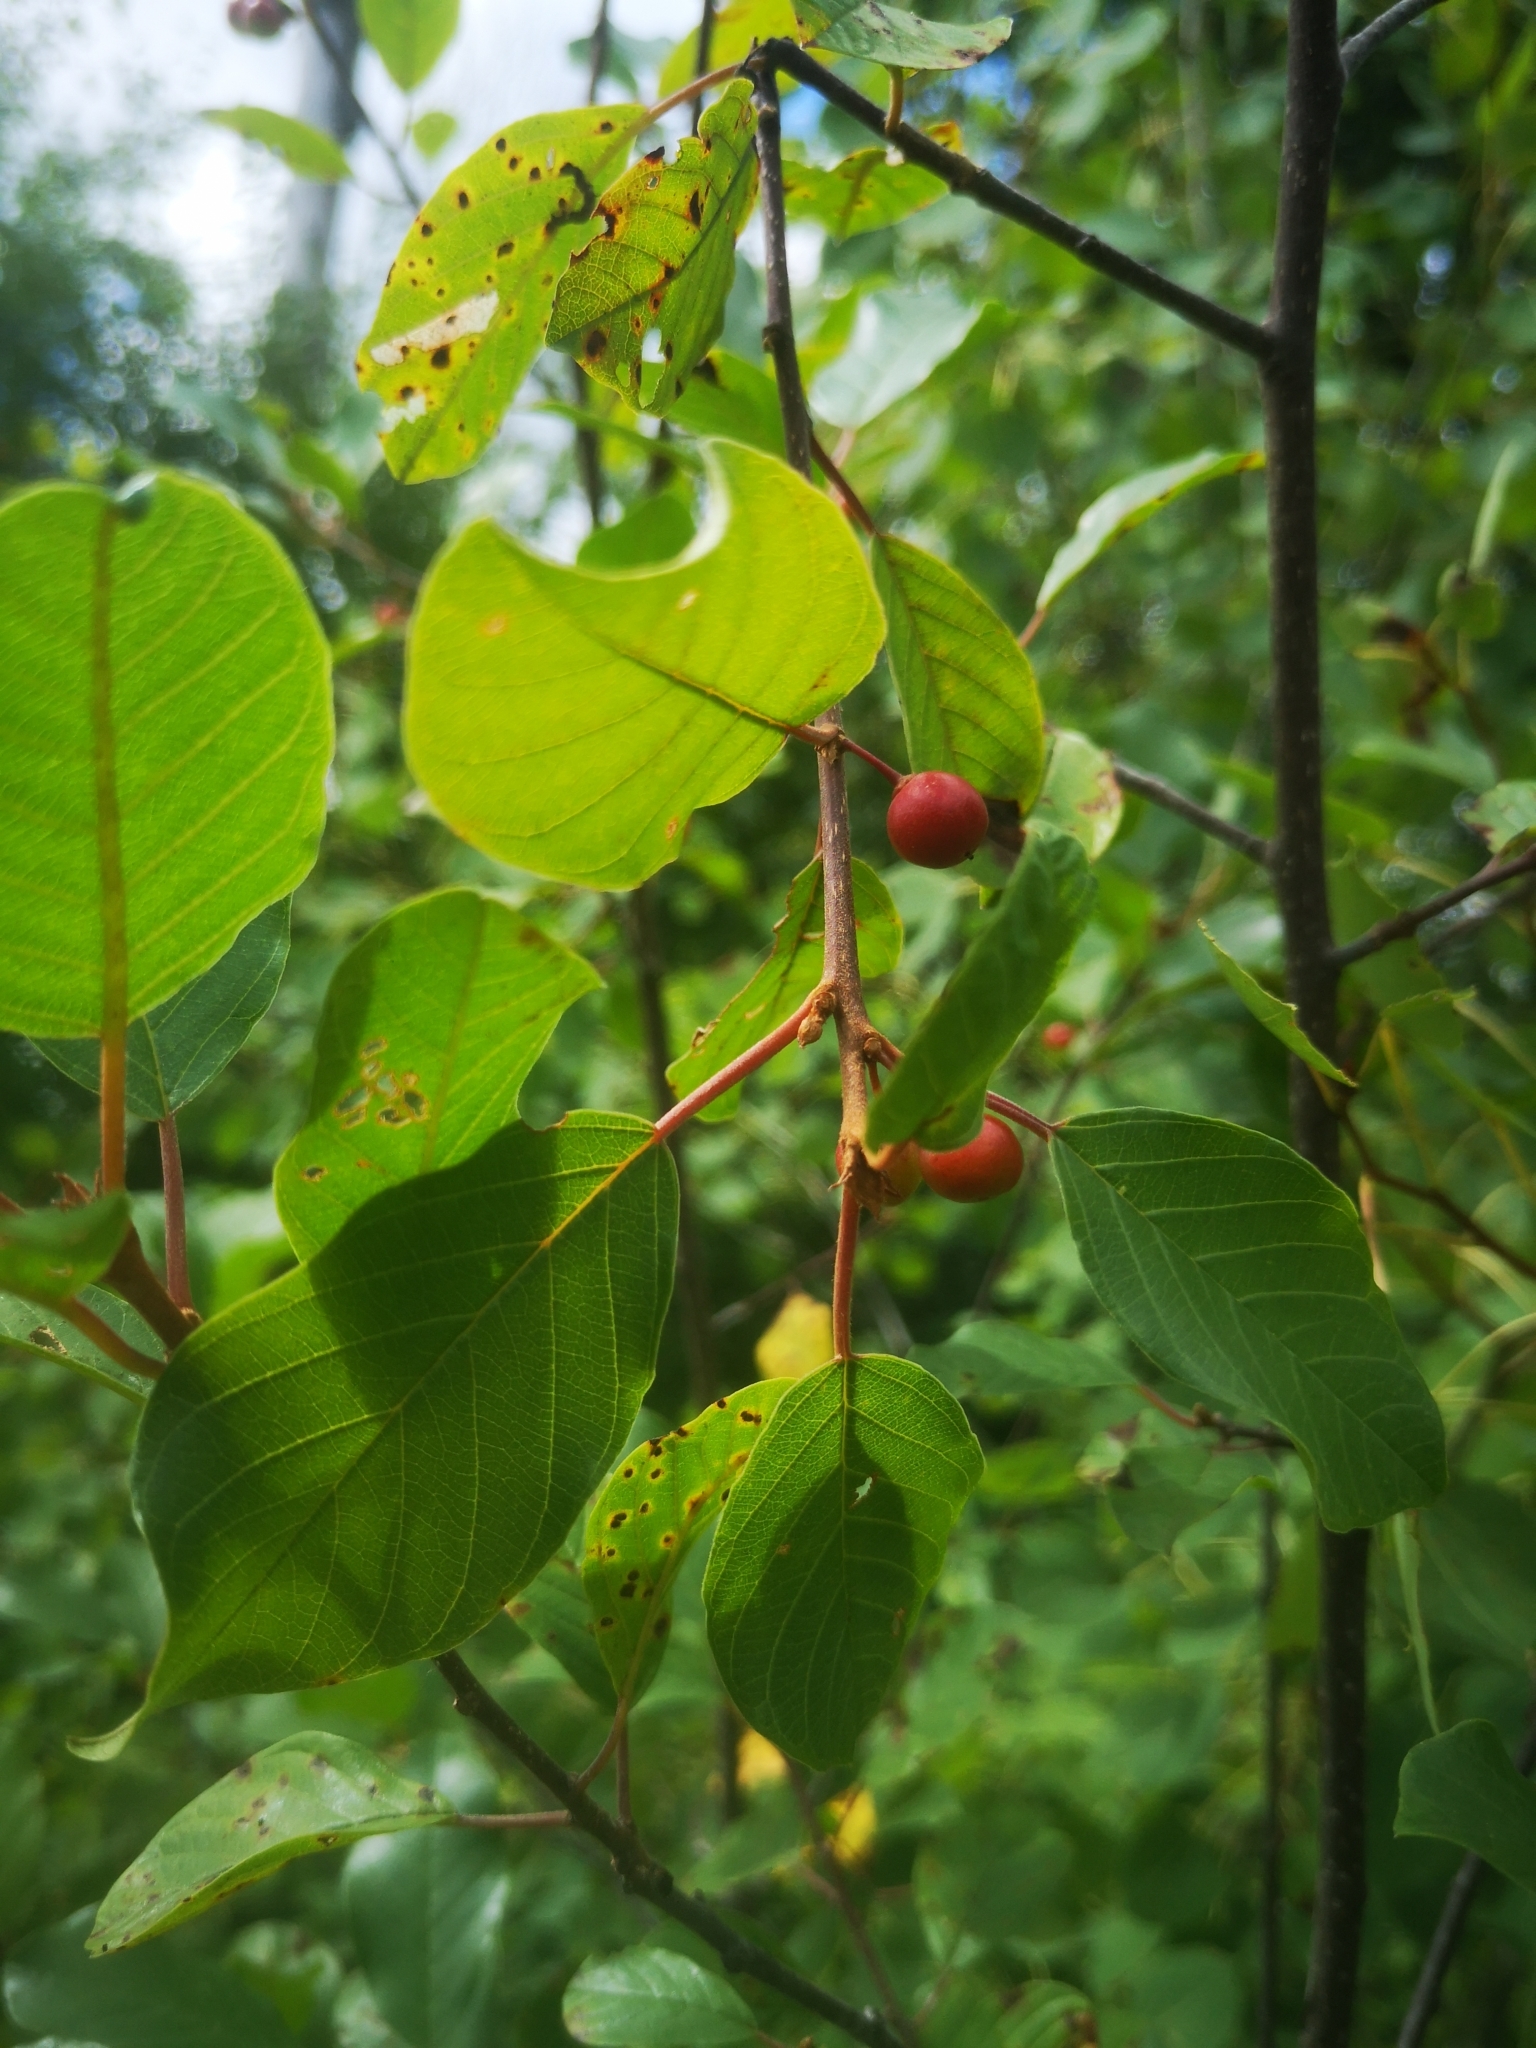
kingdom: Plantae
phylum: Tracheophyta
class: Magnoliopsida
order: Rosales
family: Rhamnaceae
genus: Frangula
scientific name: Frangula alnus
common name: Alder buckthorn
